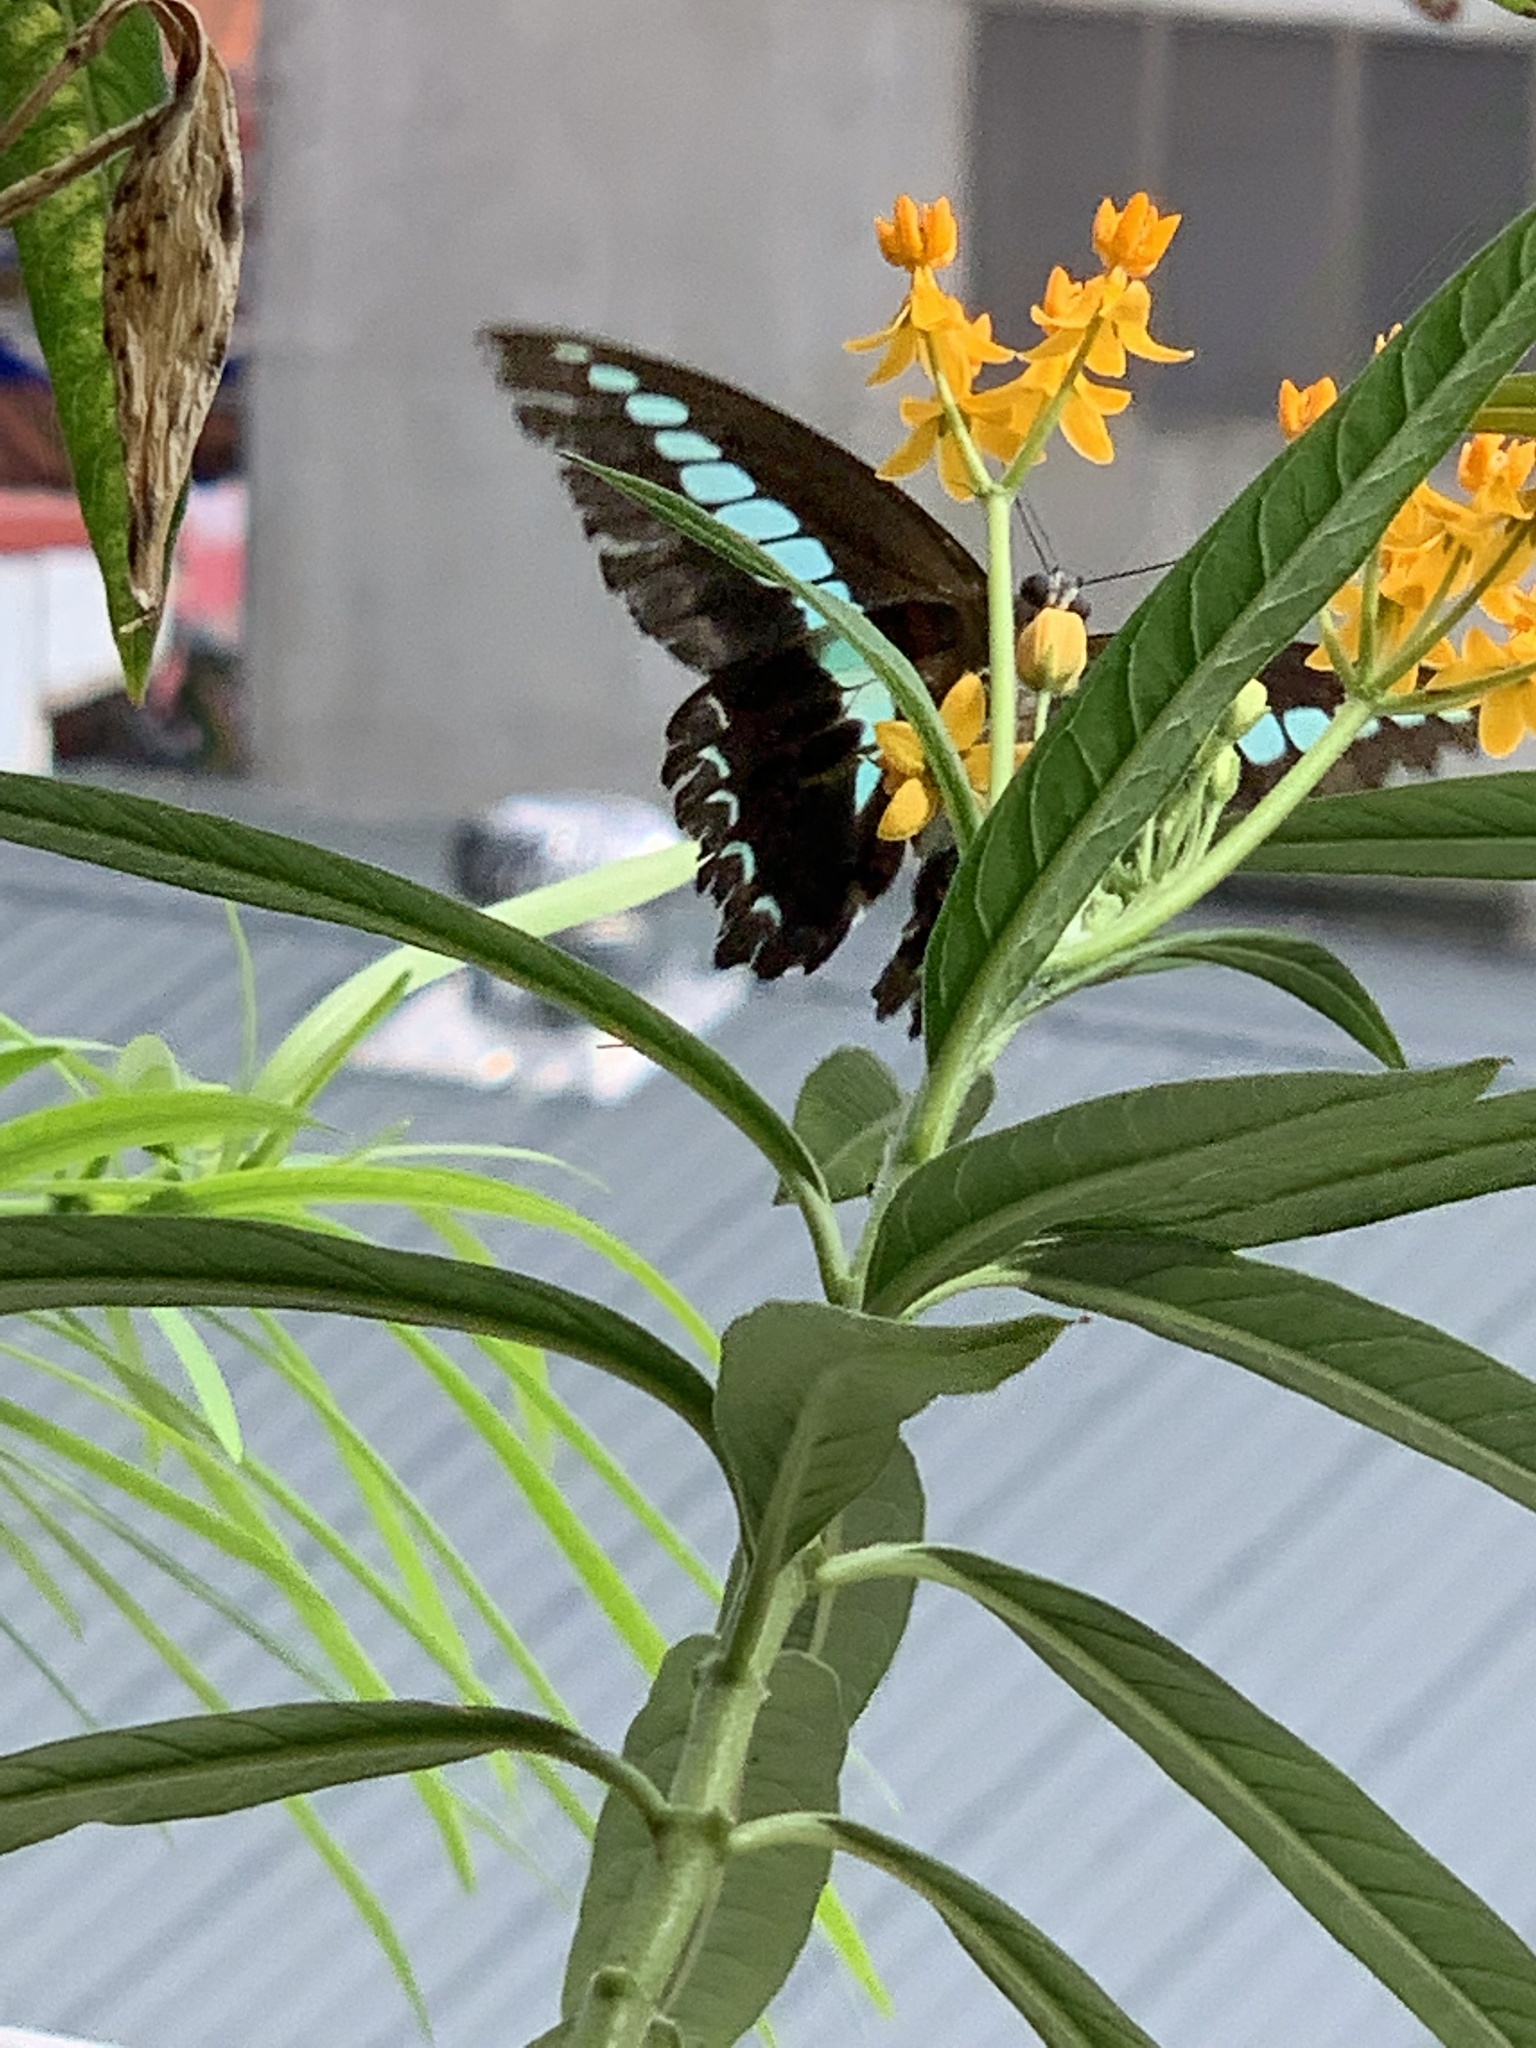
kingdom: Fungi
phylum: Ascomycota
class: Sordariomycetes
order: Microascales
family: Microascaceae
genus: Graphium
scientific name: Graphium sarpedon
